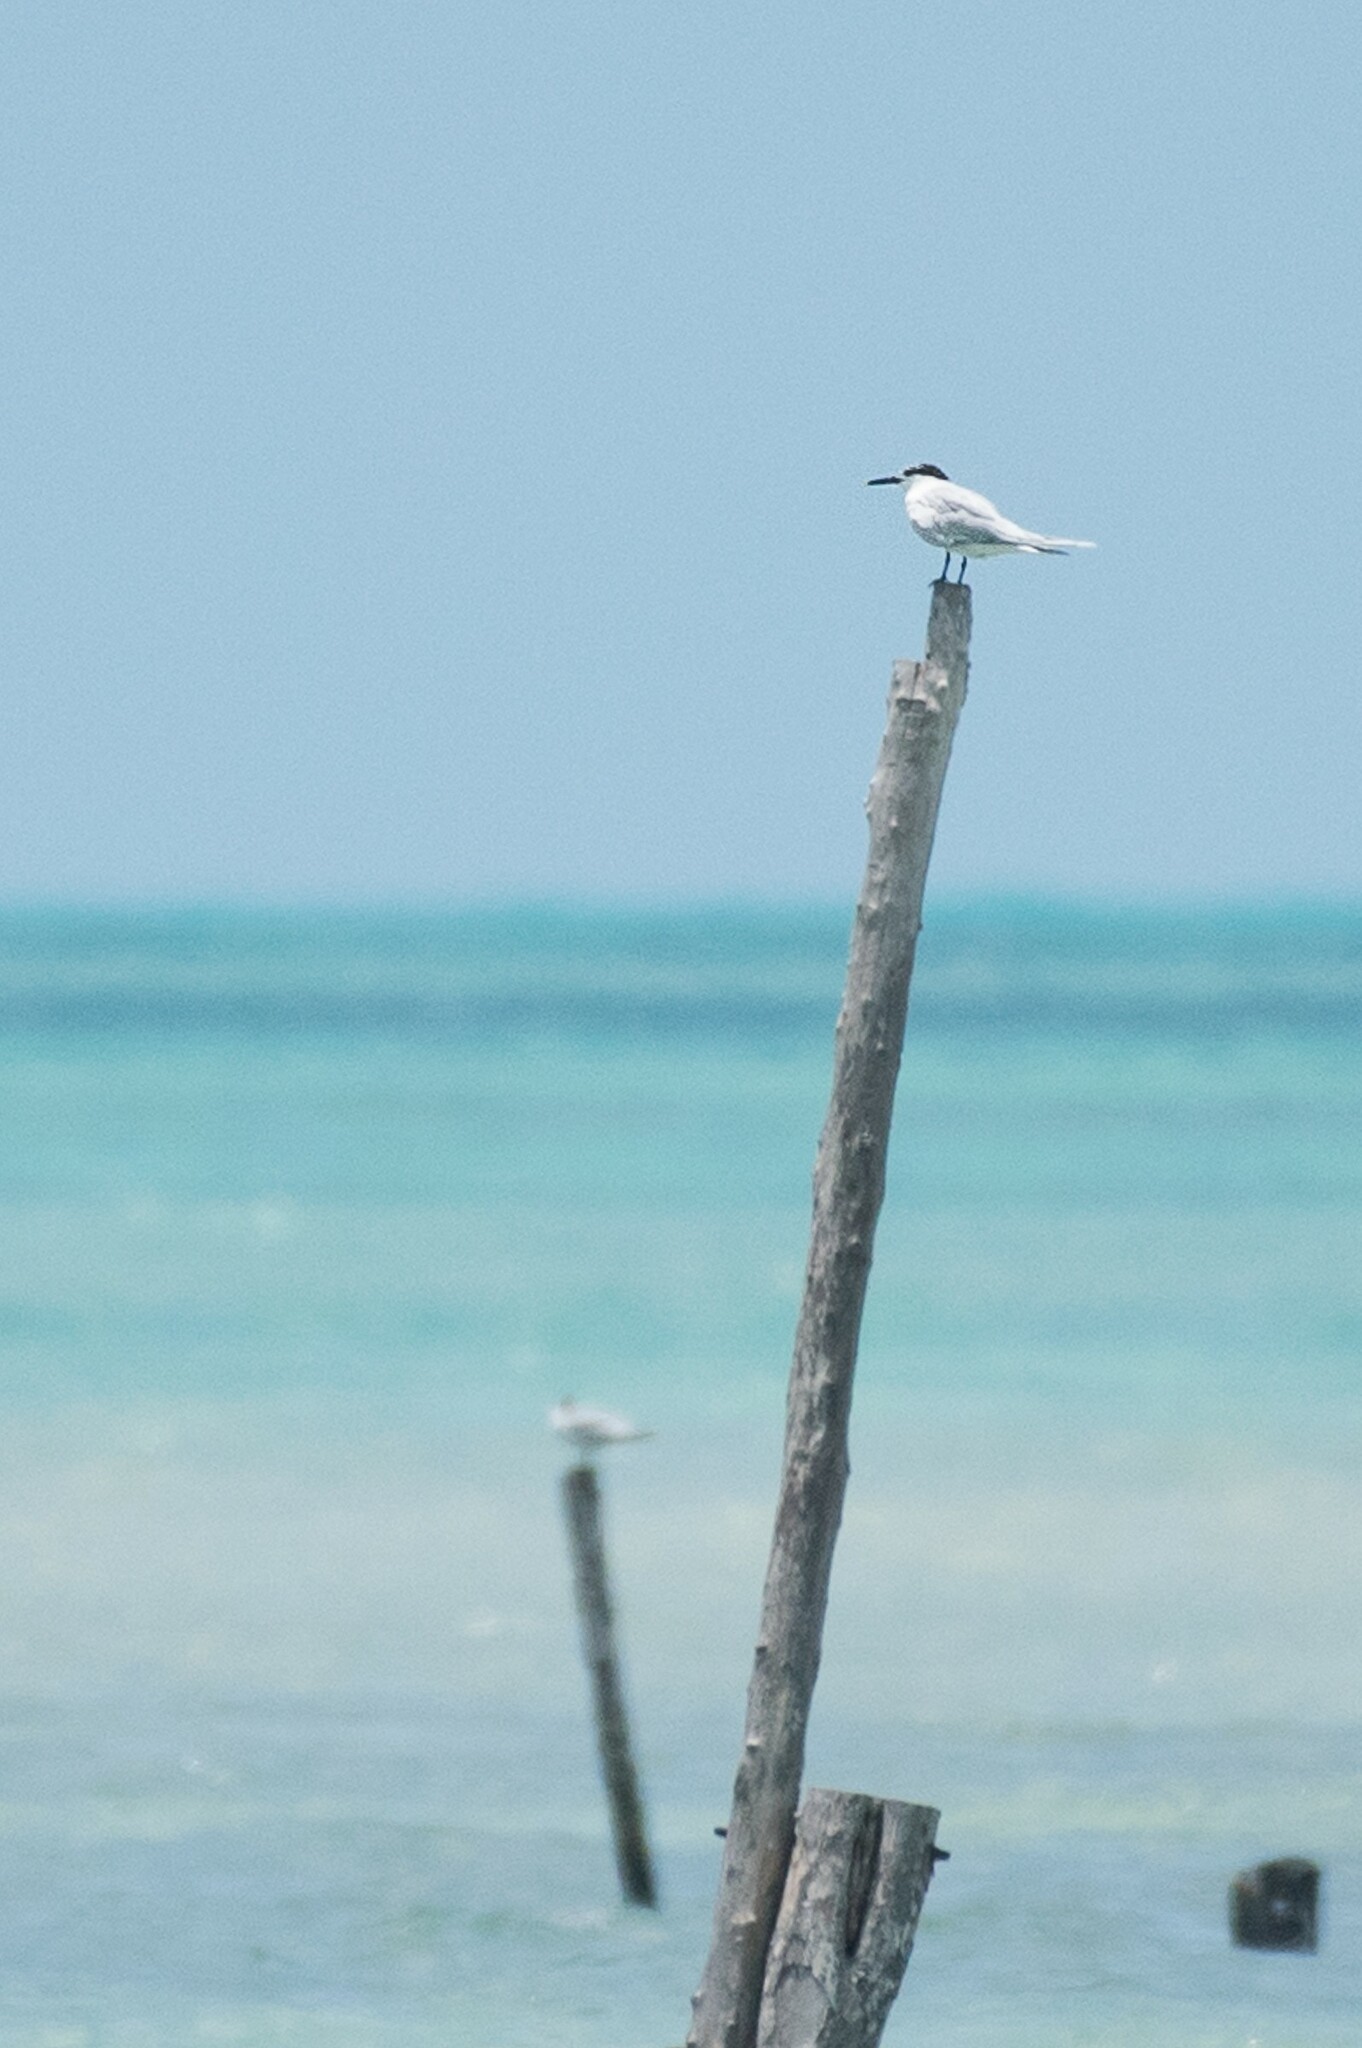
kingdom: Animalia
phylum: Chordata
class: Aves
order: Charadriiformes
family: Laridae
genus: Thalasseus
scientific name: Thalasseus sandvicensis
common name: Sandwich tern
